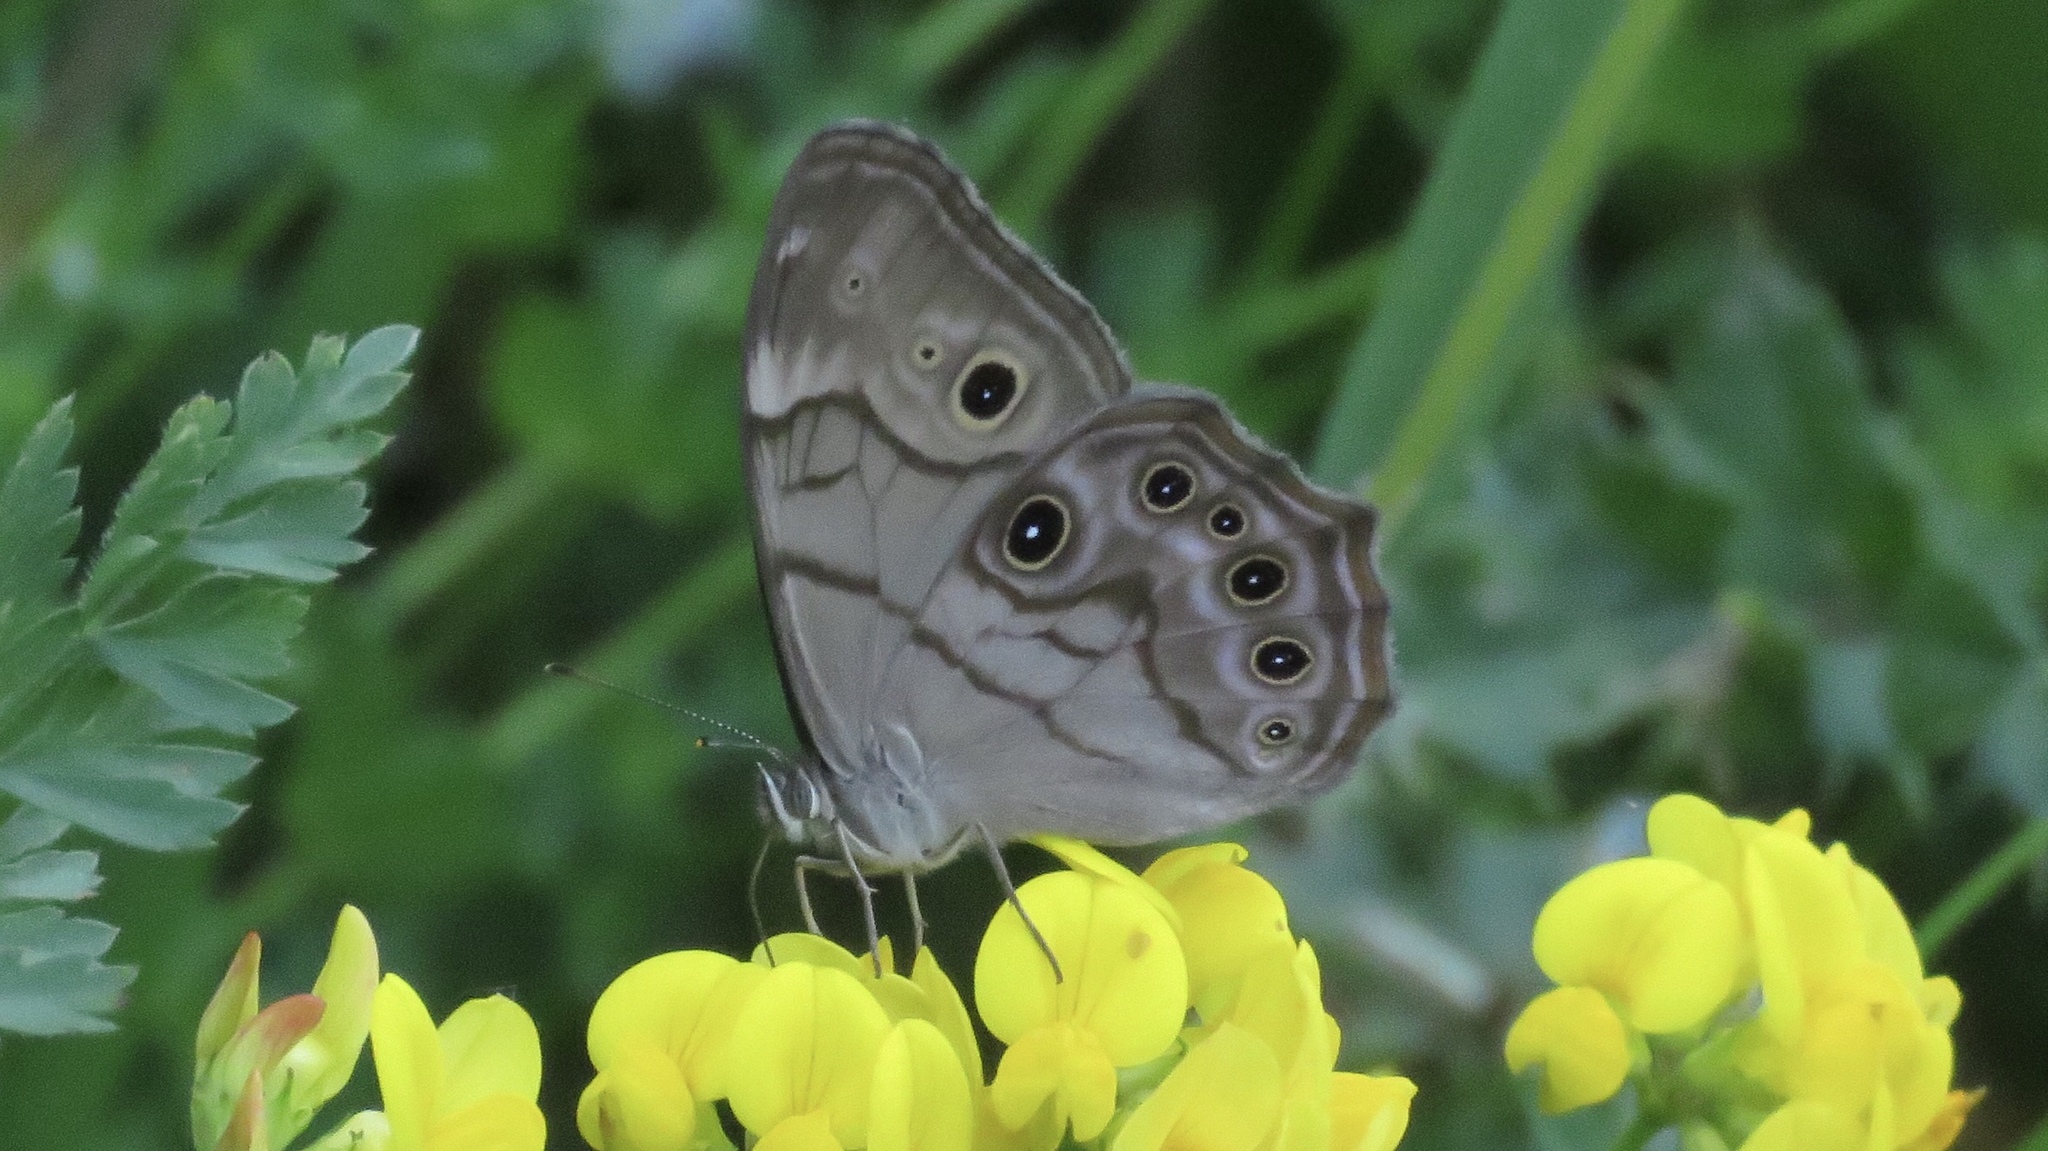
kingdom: Animalia
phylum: Arthropoda
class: Insecta
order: Lepidoptera
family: Nymphalidae
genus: Lethe
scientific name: Lethe anthedon
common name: Northern pearly-eye
